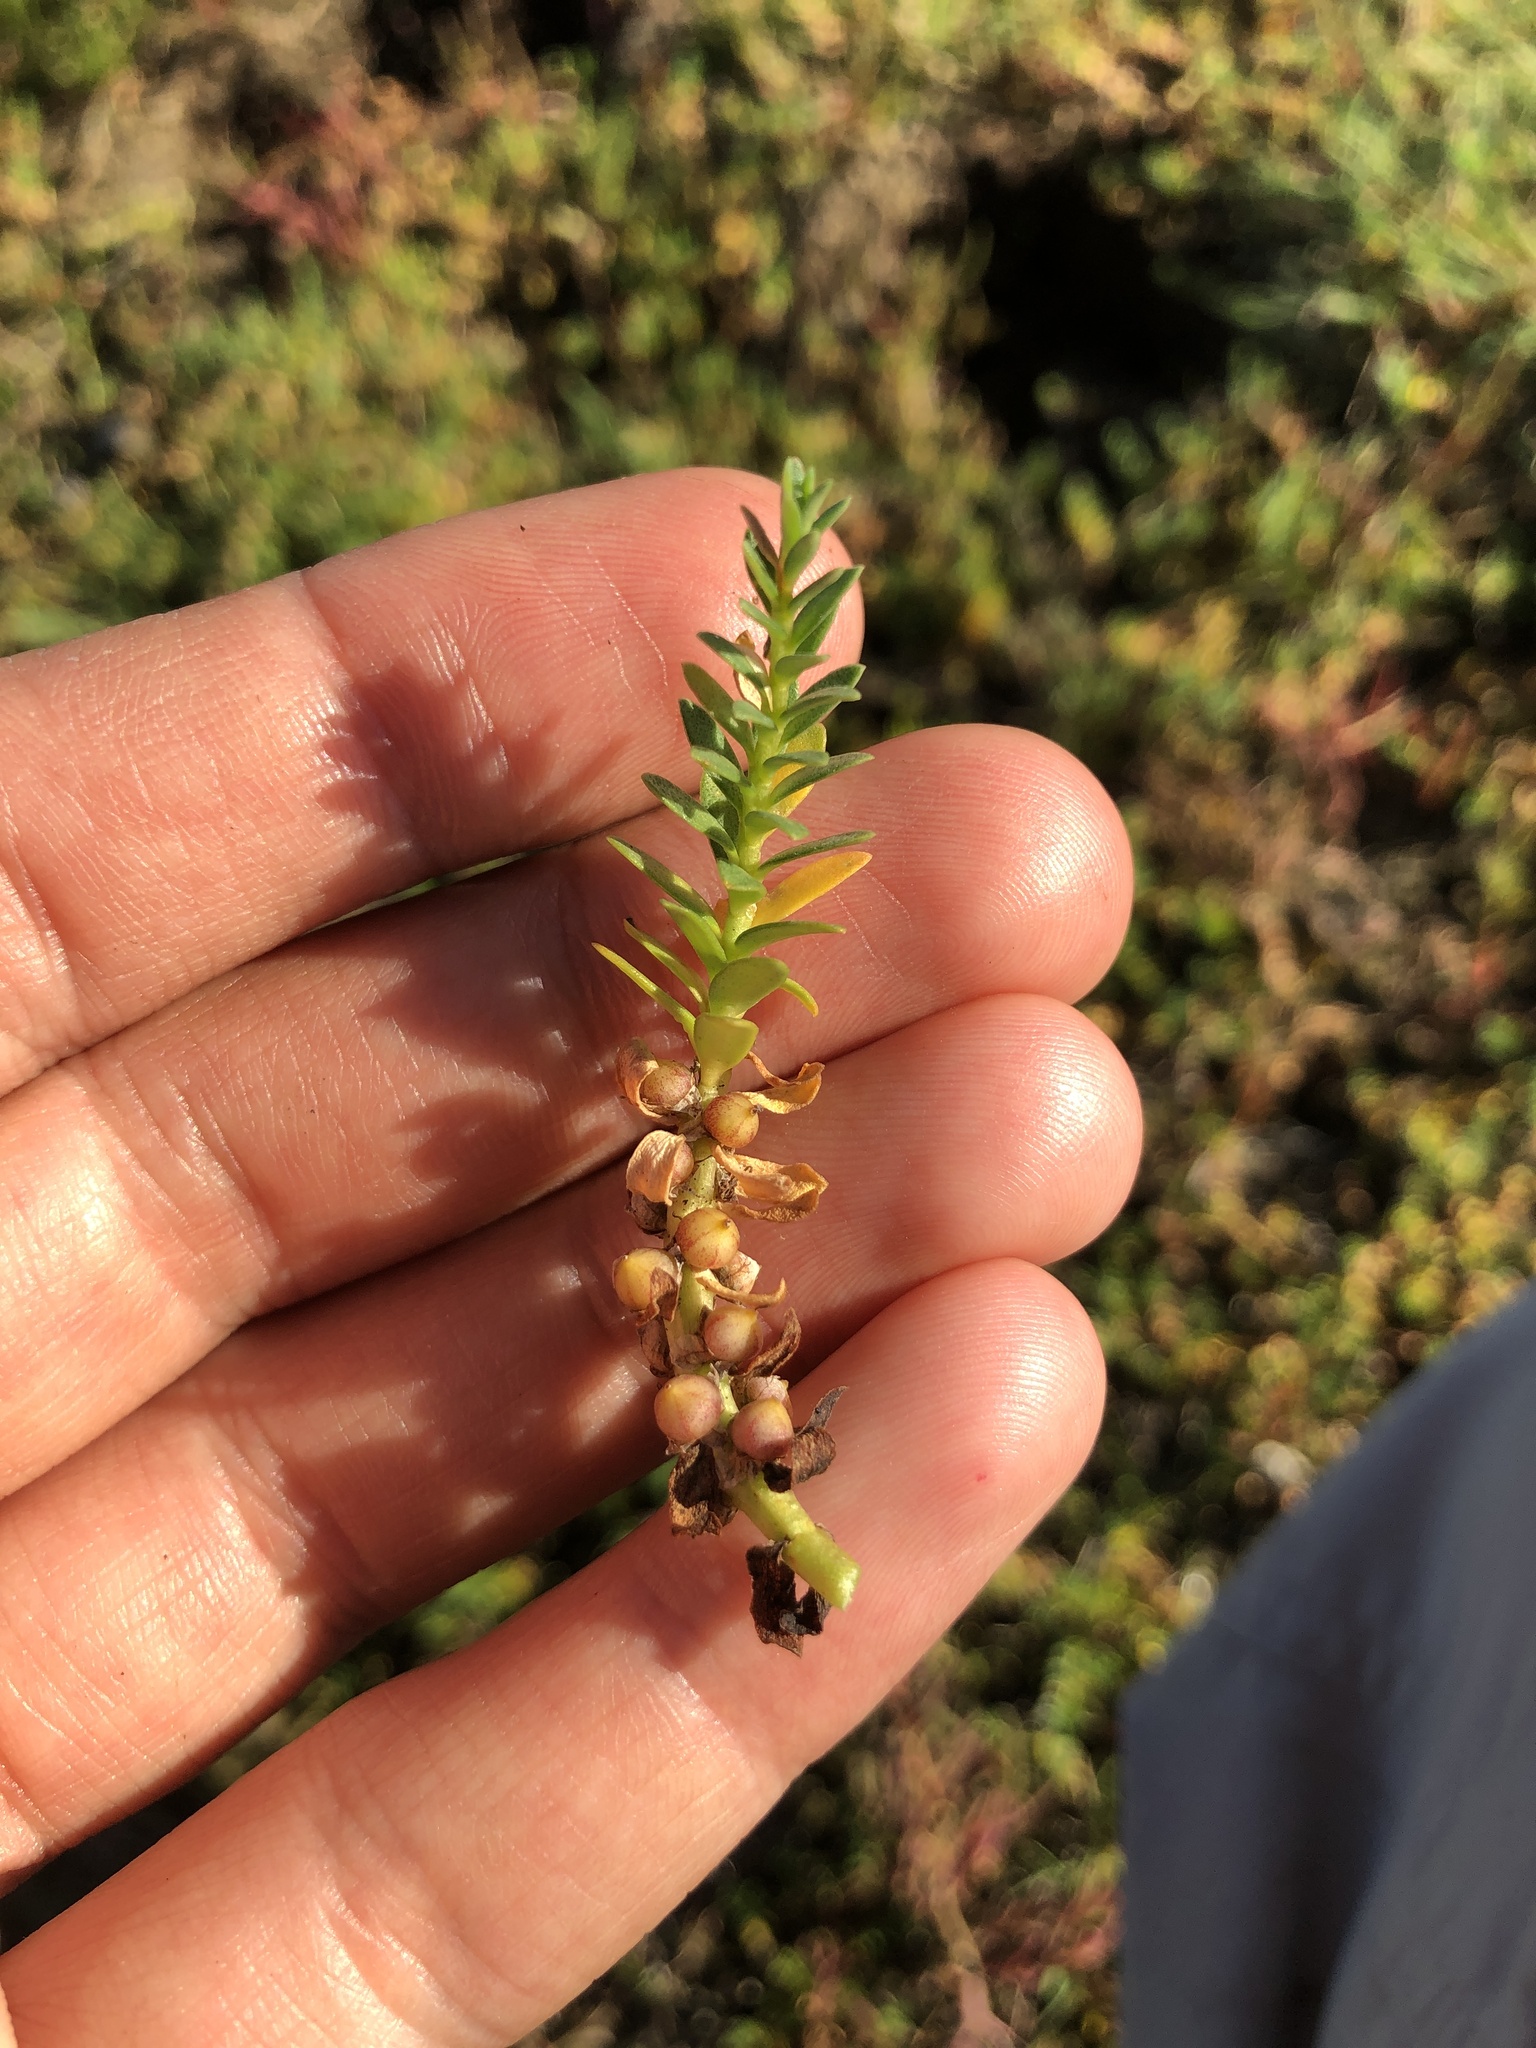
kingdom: Plantae
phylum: Tracheophyta
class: Magnoliopsida
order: Ericales
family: Primulaceae
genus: Lysimachia
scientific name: Lysimachia maritima
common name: Sea milkwort
